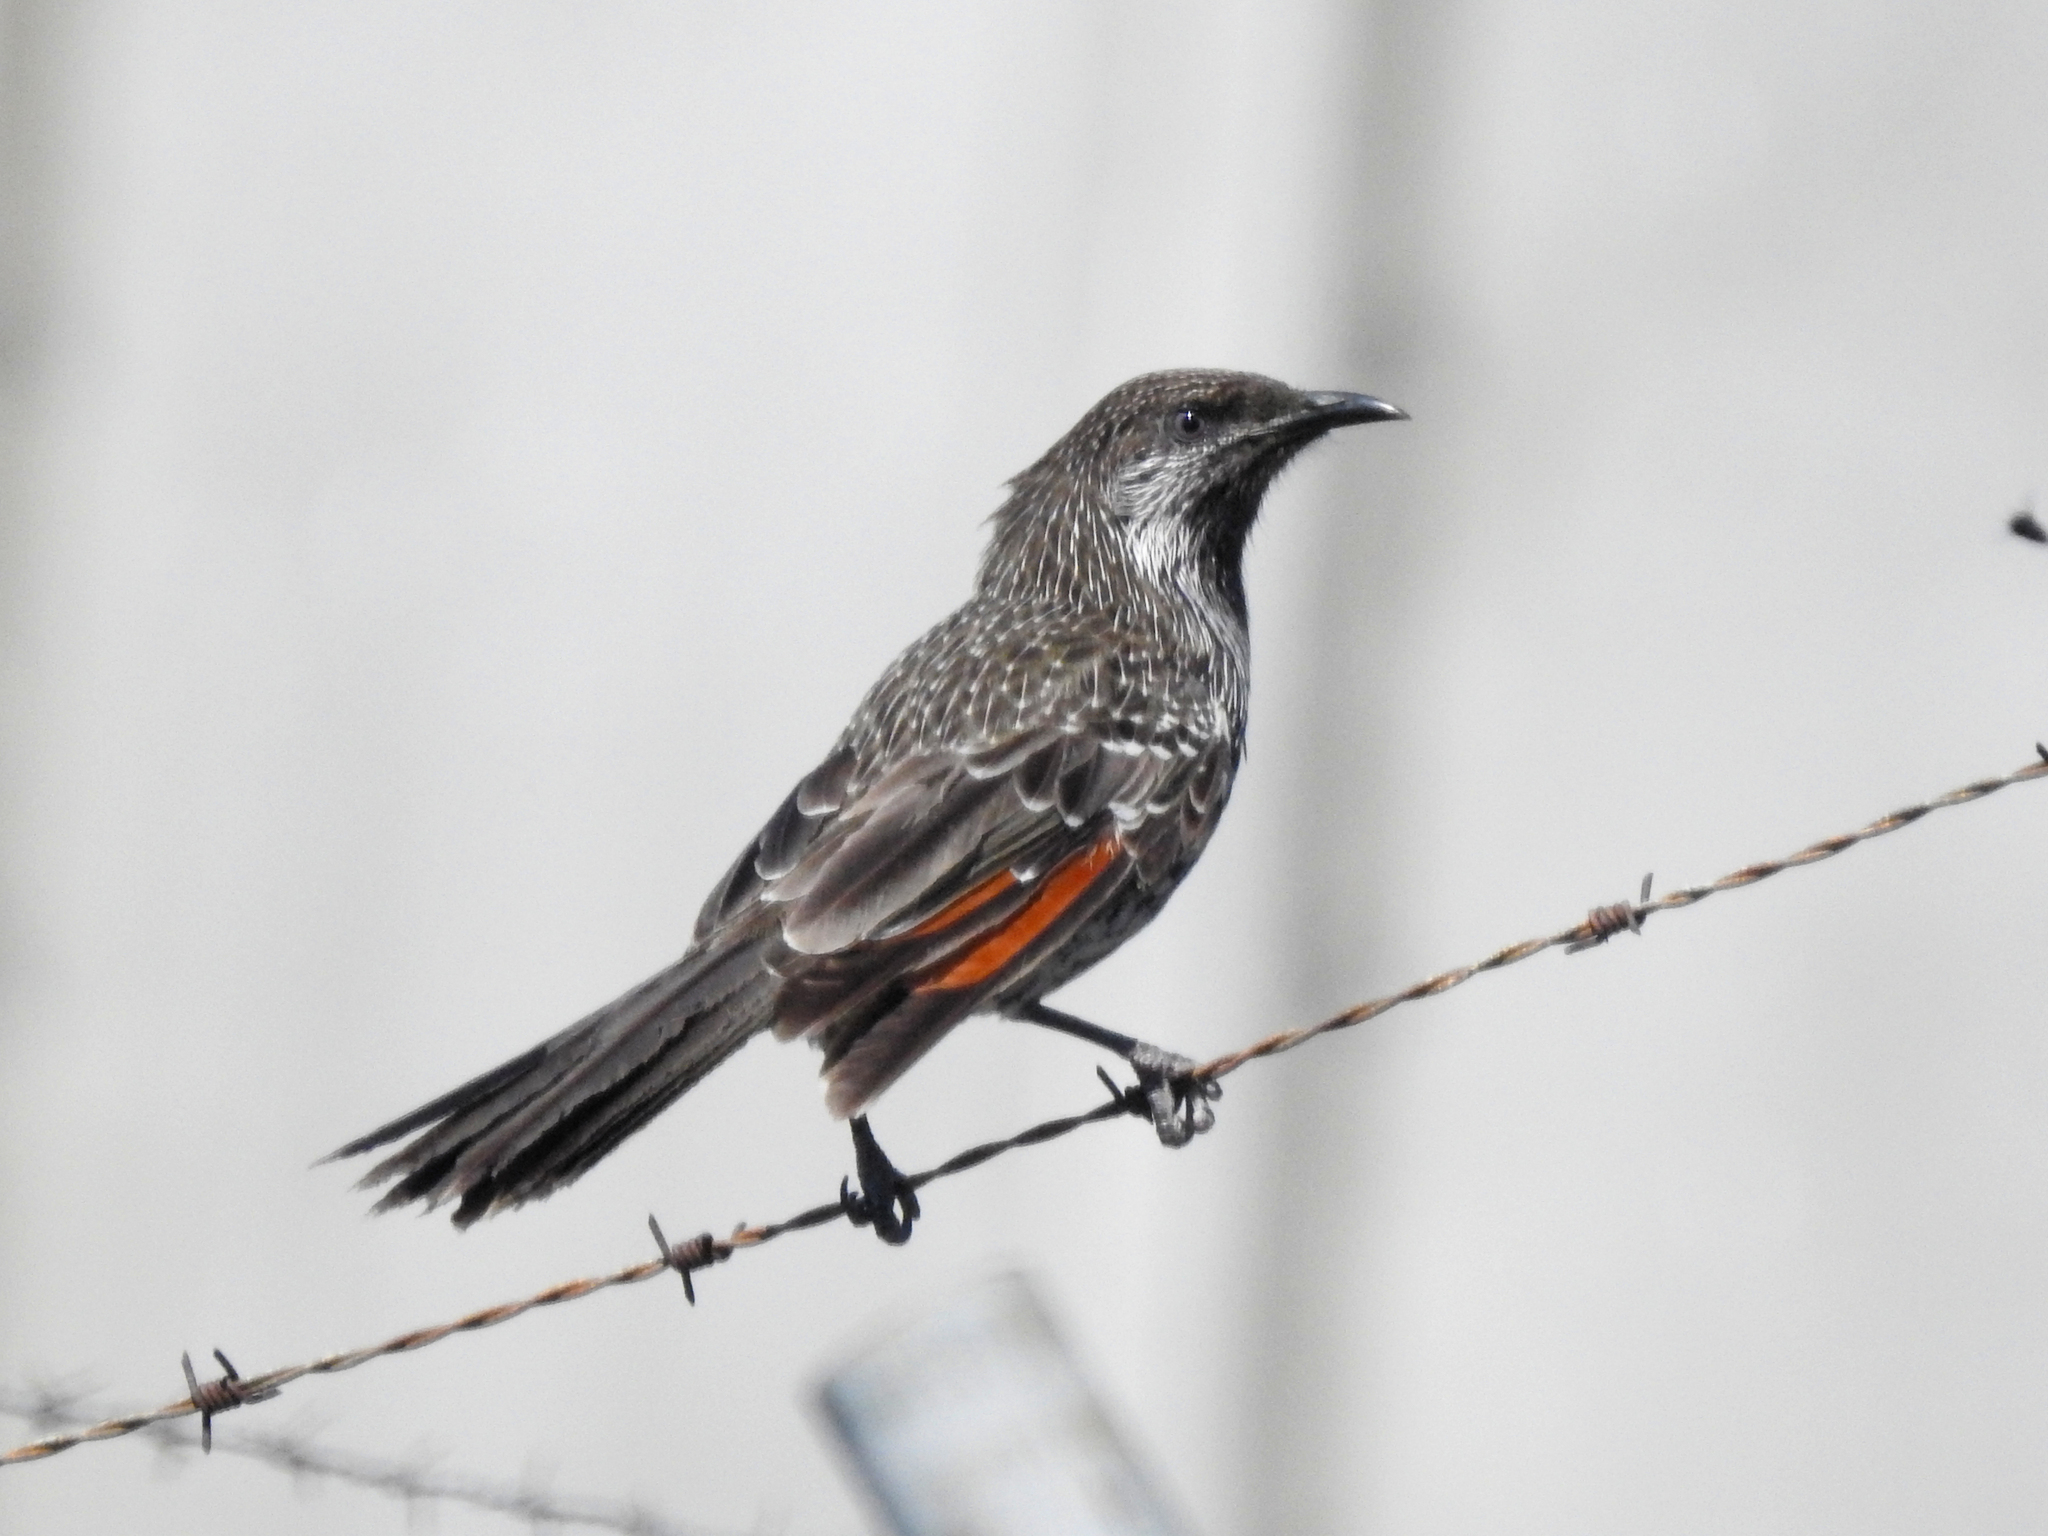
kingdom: Animalia
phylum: Chordata
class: Aves
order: Passeriformes
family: Meliphagidae
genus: Anthochaera
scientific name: Anthochaera chrysoptera
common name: Little wattlebird
